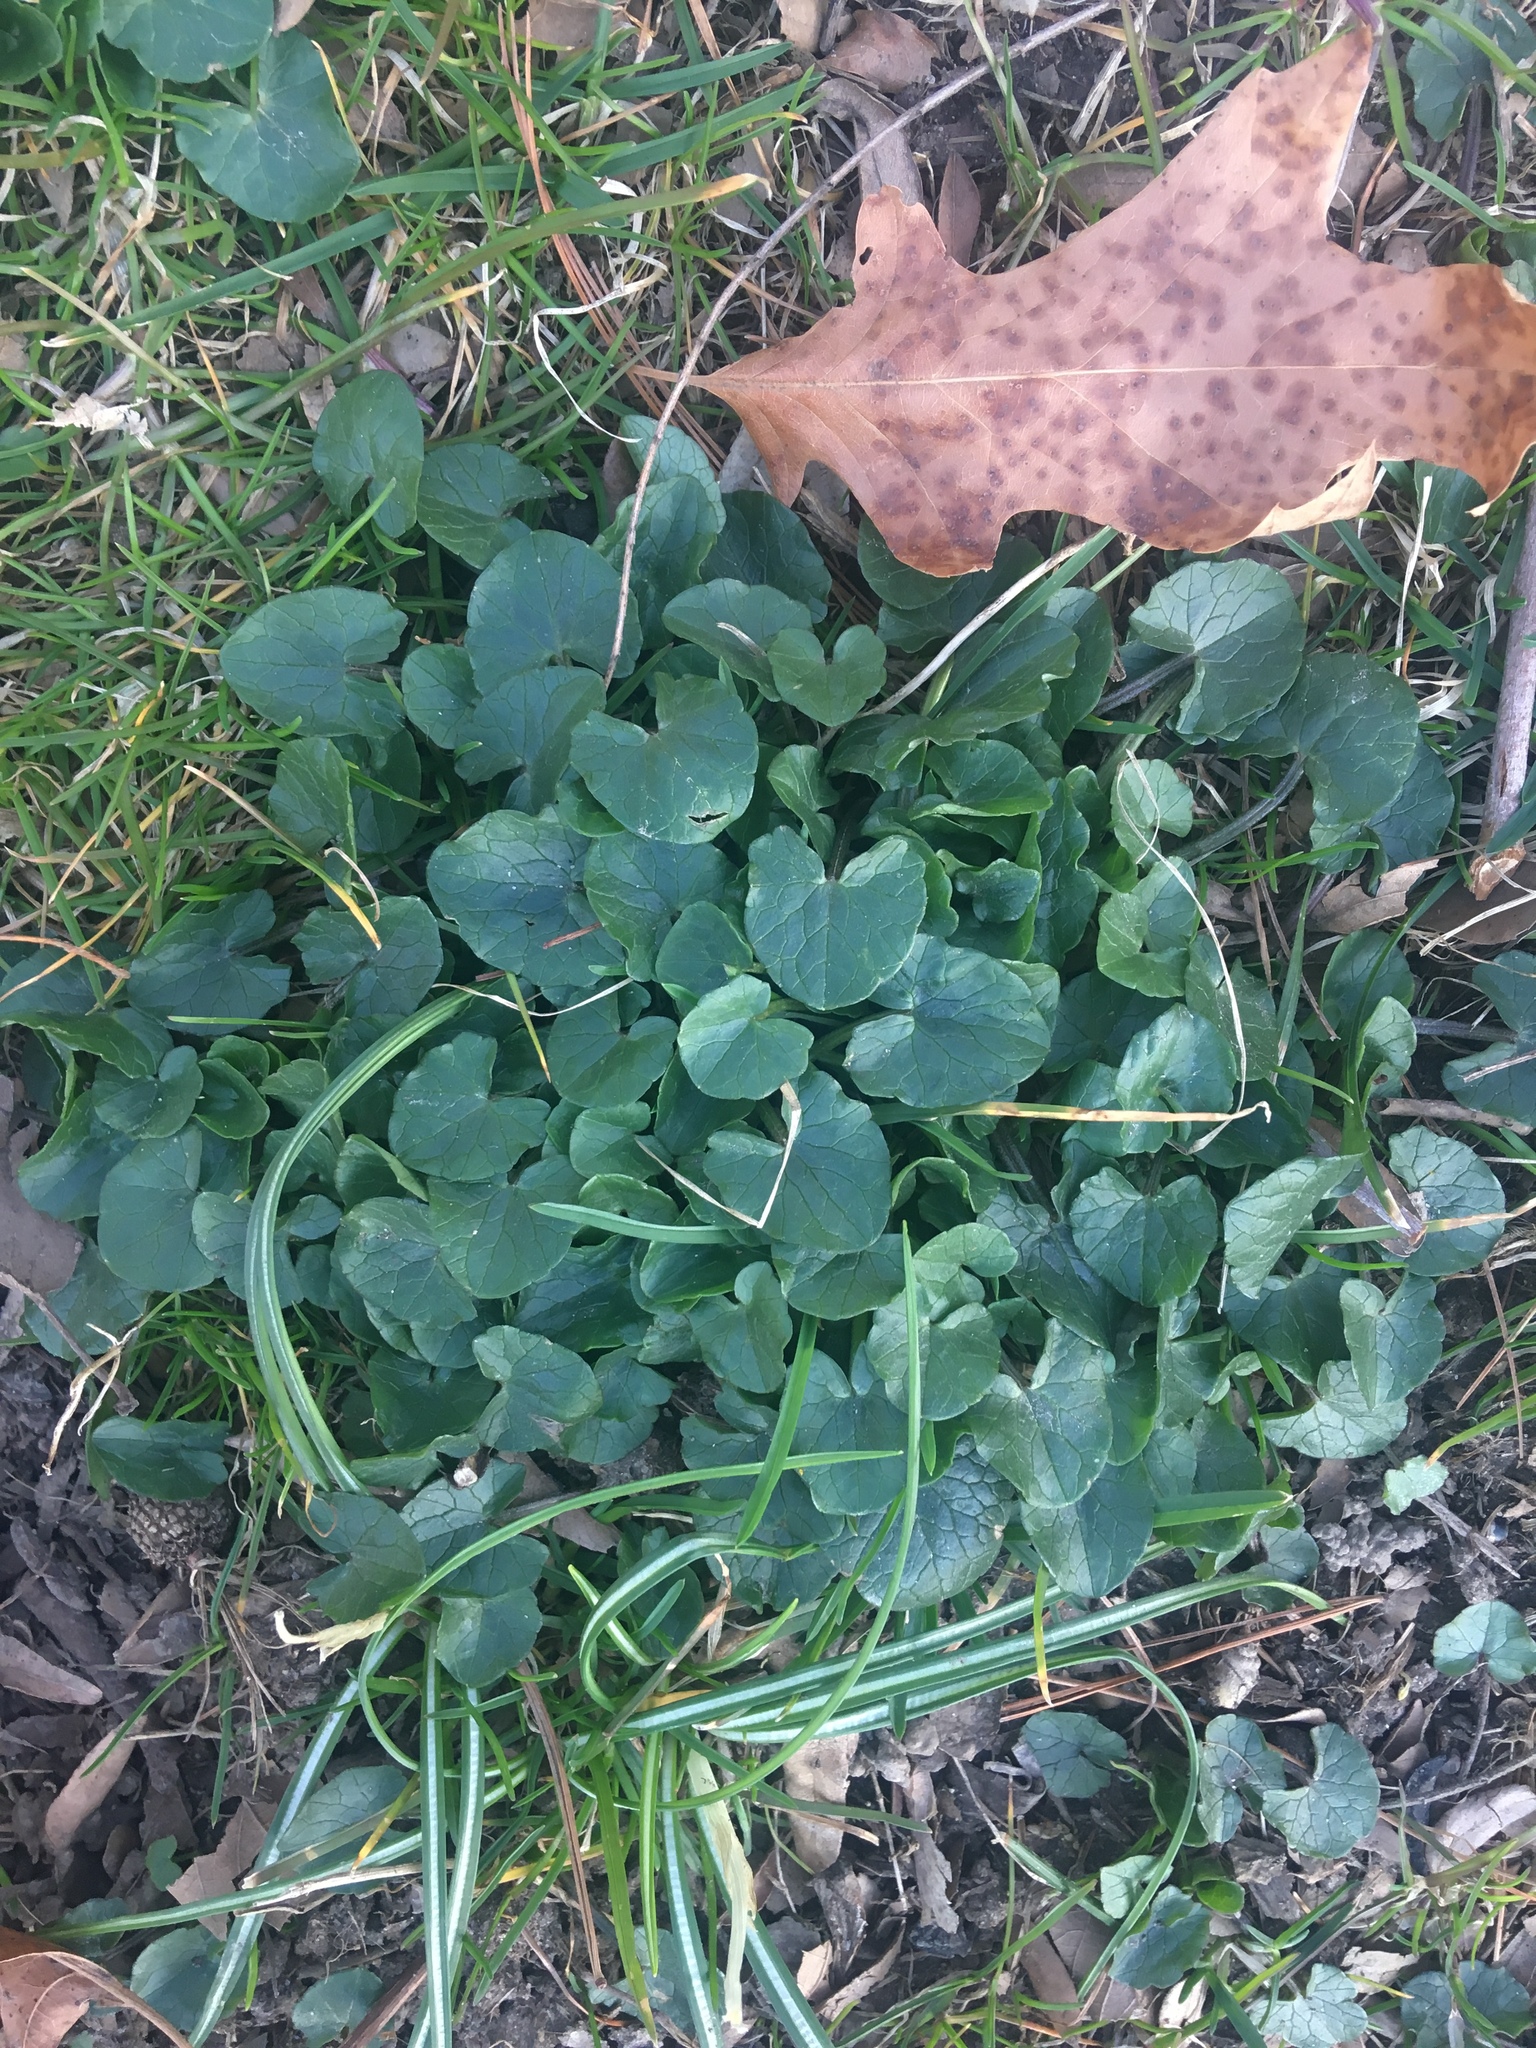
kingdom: Plantae
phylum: Tracheophyta
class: Magnoliopsida
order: Ranunculales
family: Ranunculaceae
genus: Ficaria
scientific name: Ficaria verna
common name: Lesser celandine
